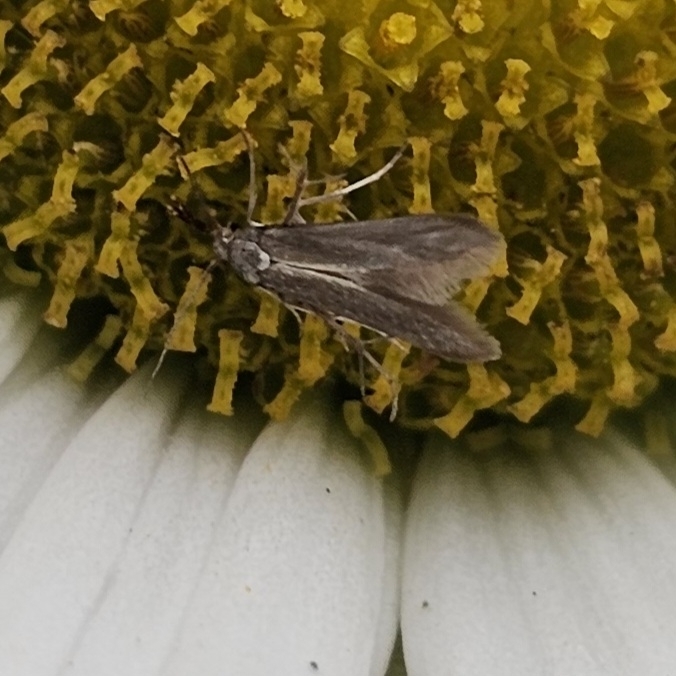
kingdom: Animalia
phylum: Arthropoda
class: Insecta
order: Lepidoptera
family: Schreckensteiniidae
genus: Schreckensteinia
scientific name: Schreckensteinia erythriella
